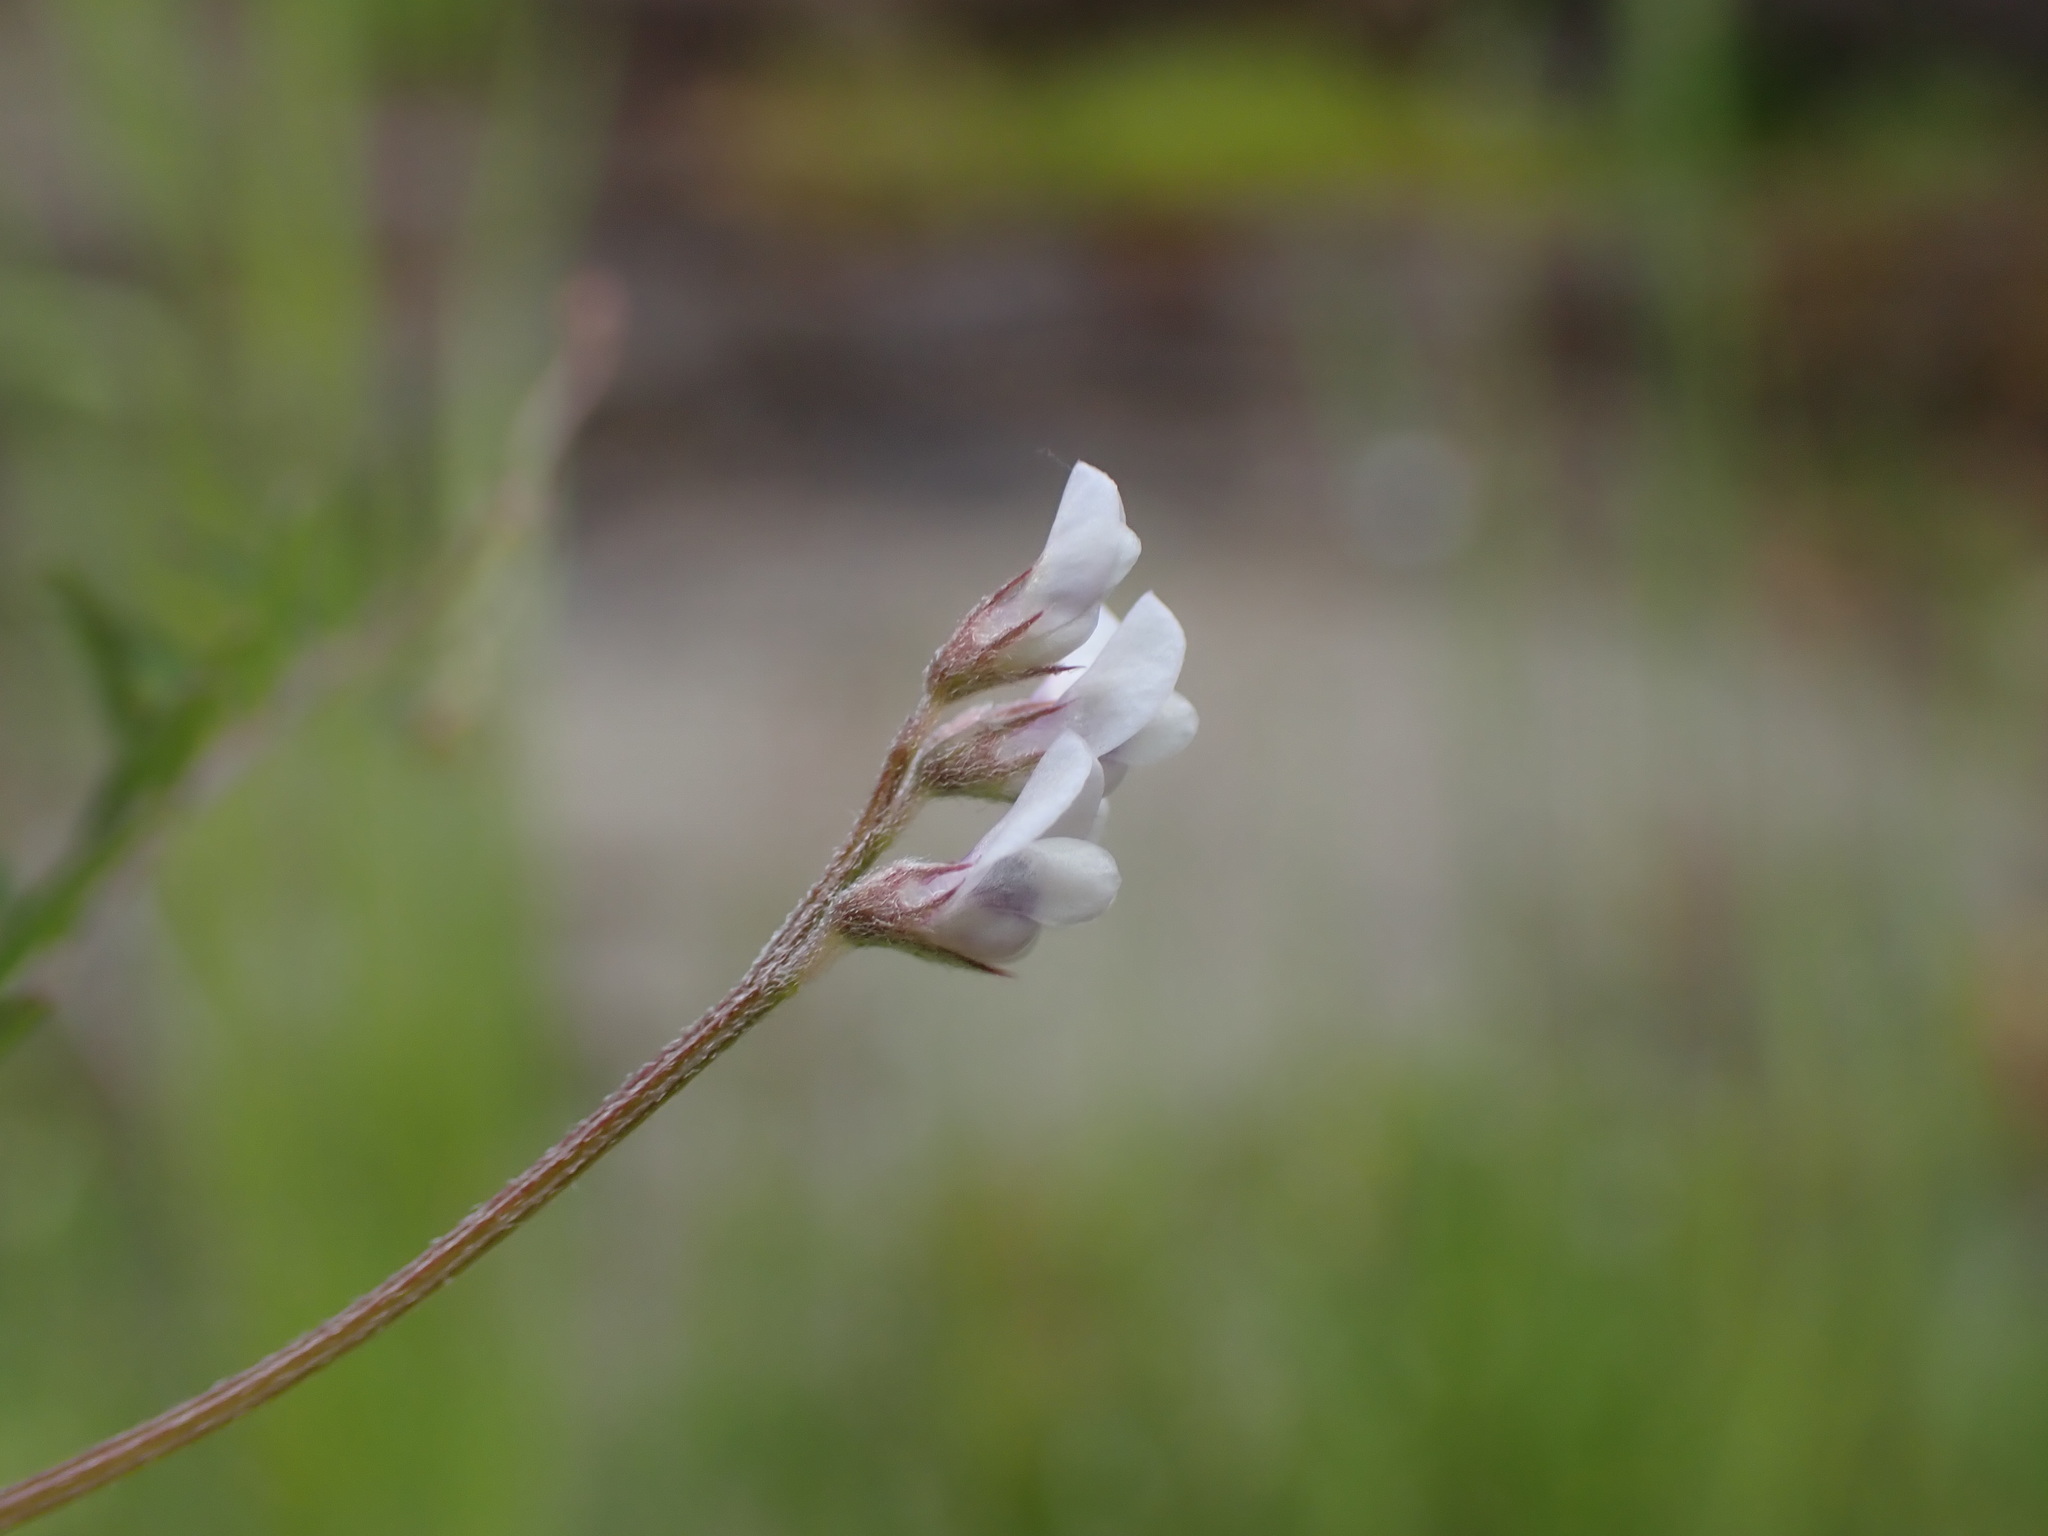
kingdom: Plantae
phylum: Tracheophyta
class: Magnoliopsida
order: Fabales
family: Fabaceae
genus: Vicia
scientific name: Vicia hirsuta
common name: Tiny vetch
